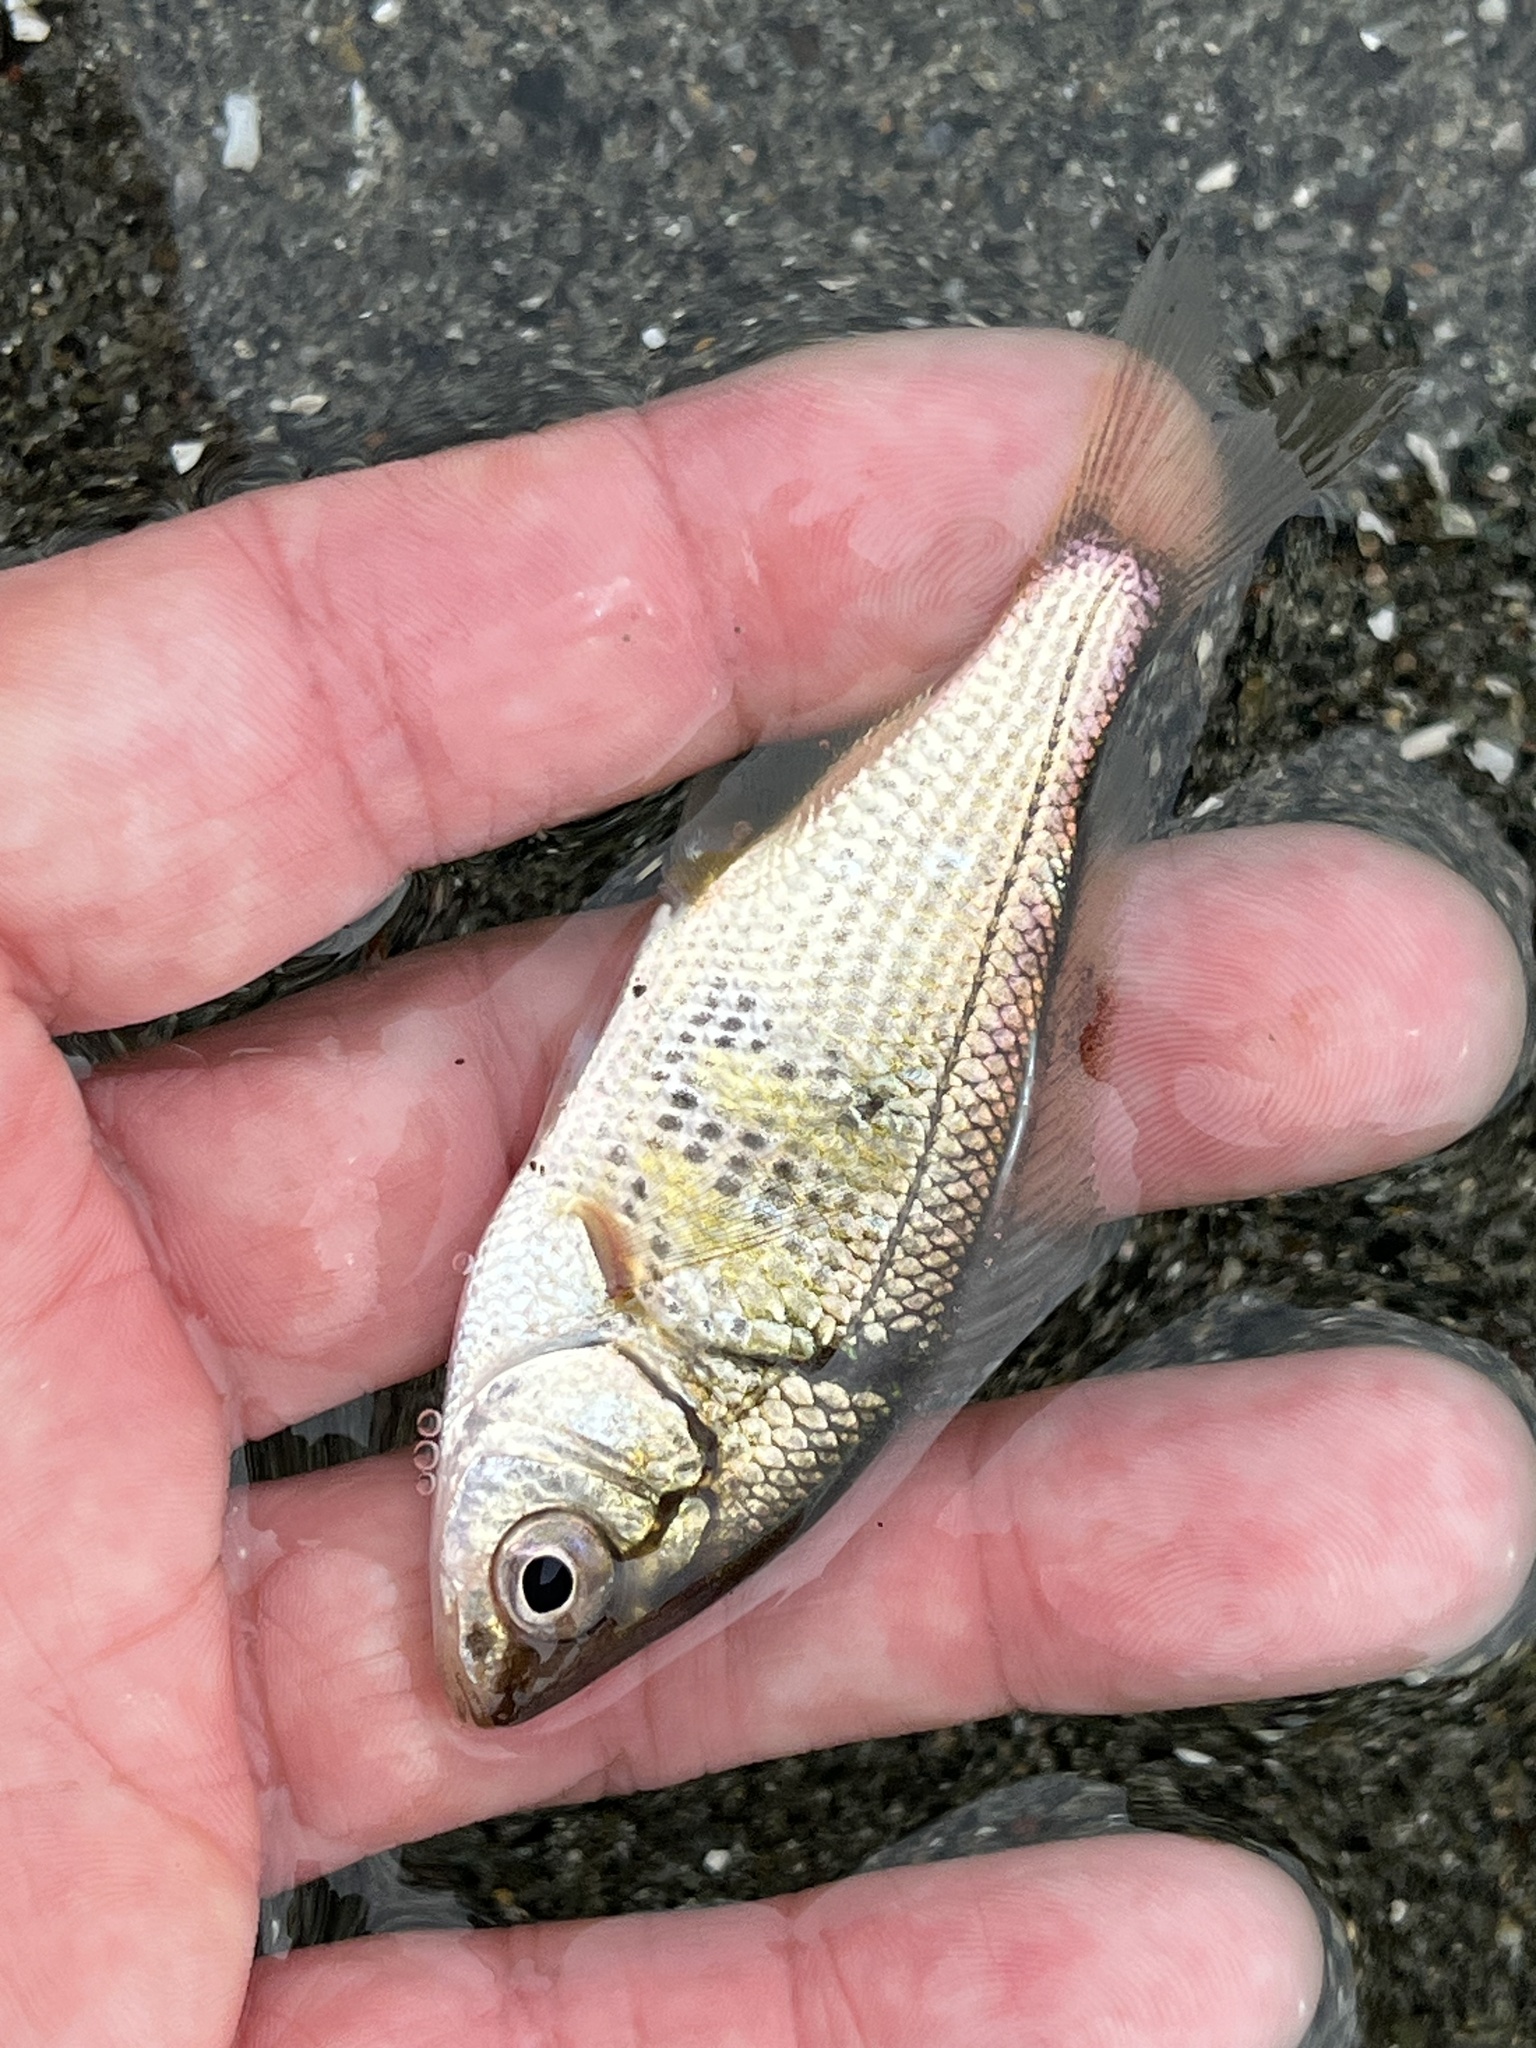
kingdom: Animalia
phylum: Chordata
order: Perciformes
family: Embiotocidae
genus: Cymatogaster
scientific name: Cymatogaster aggregata
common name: Shiner perch
